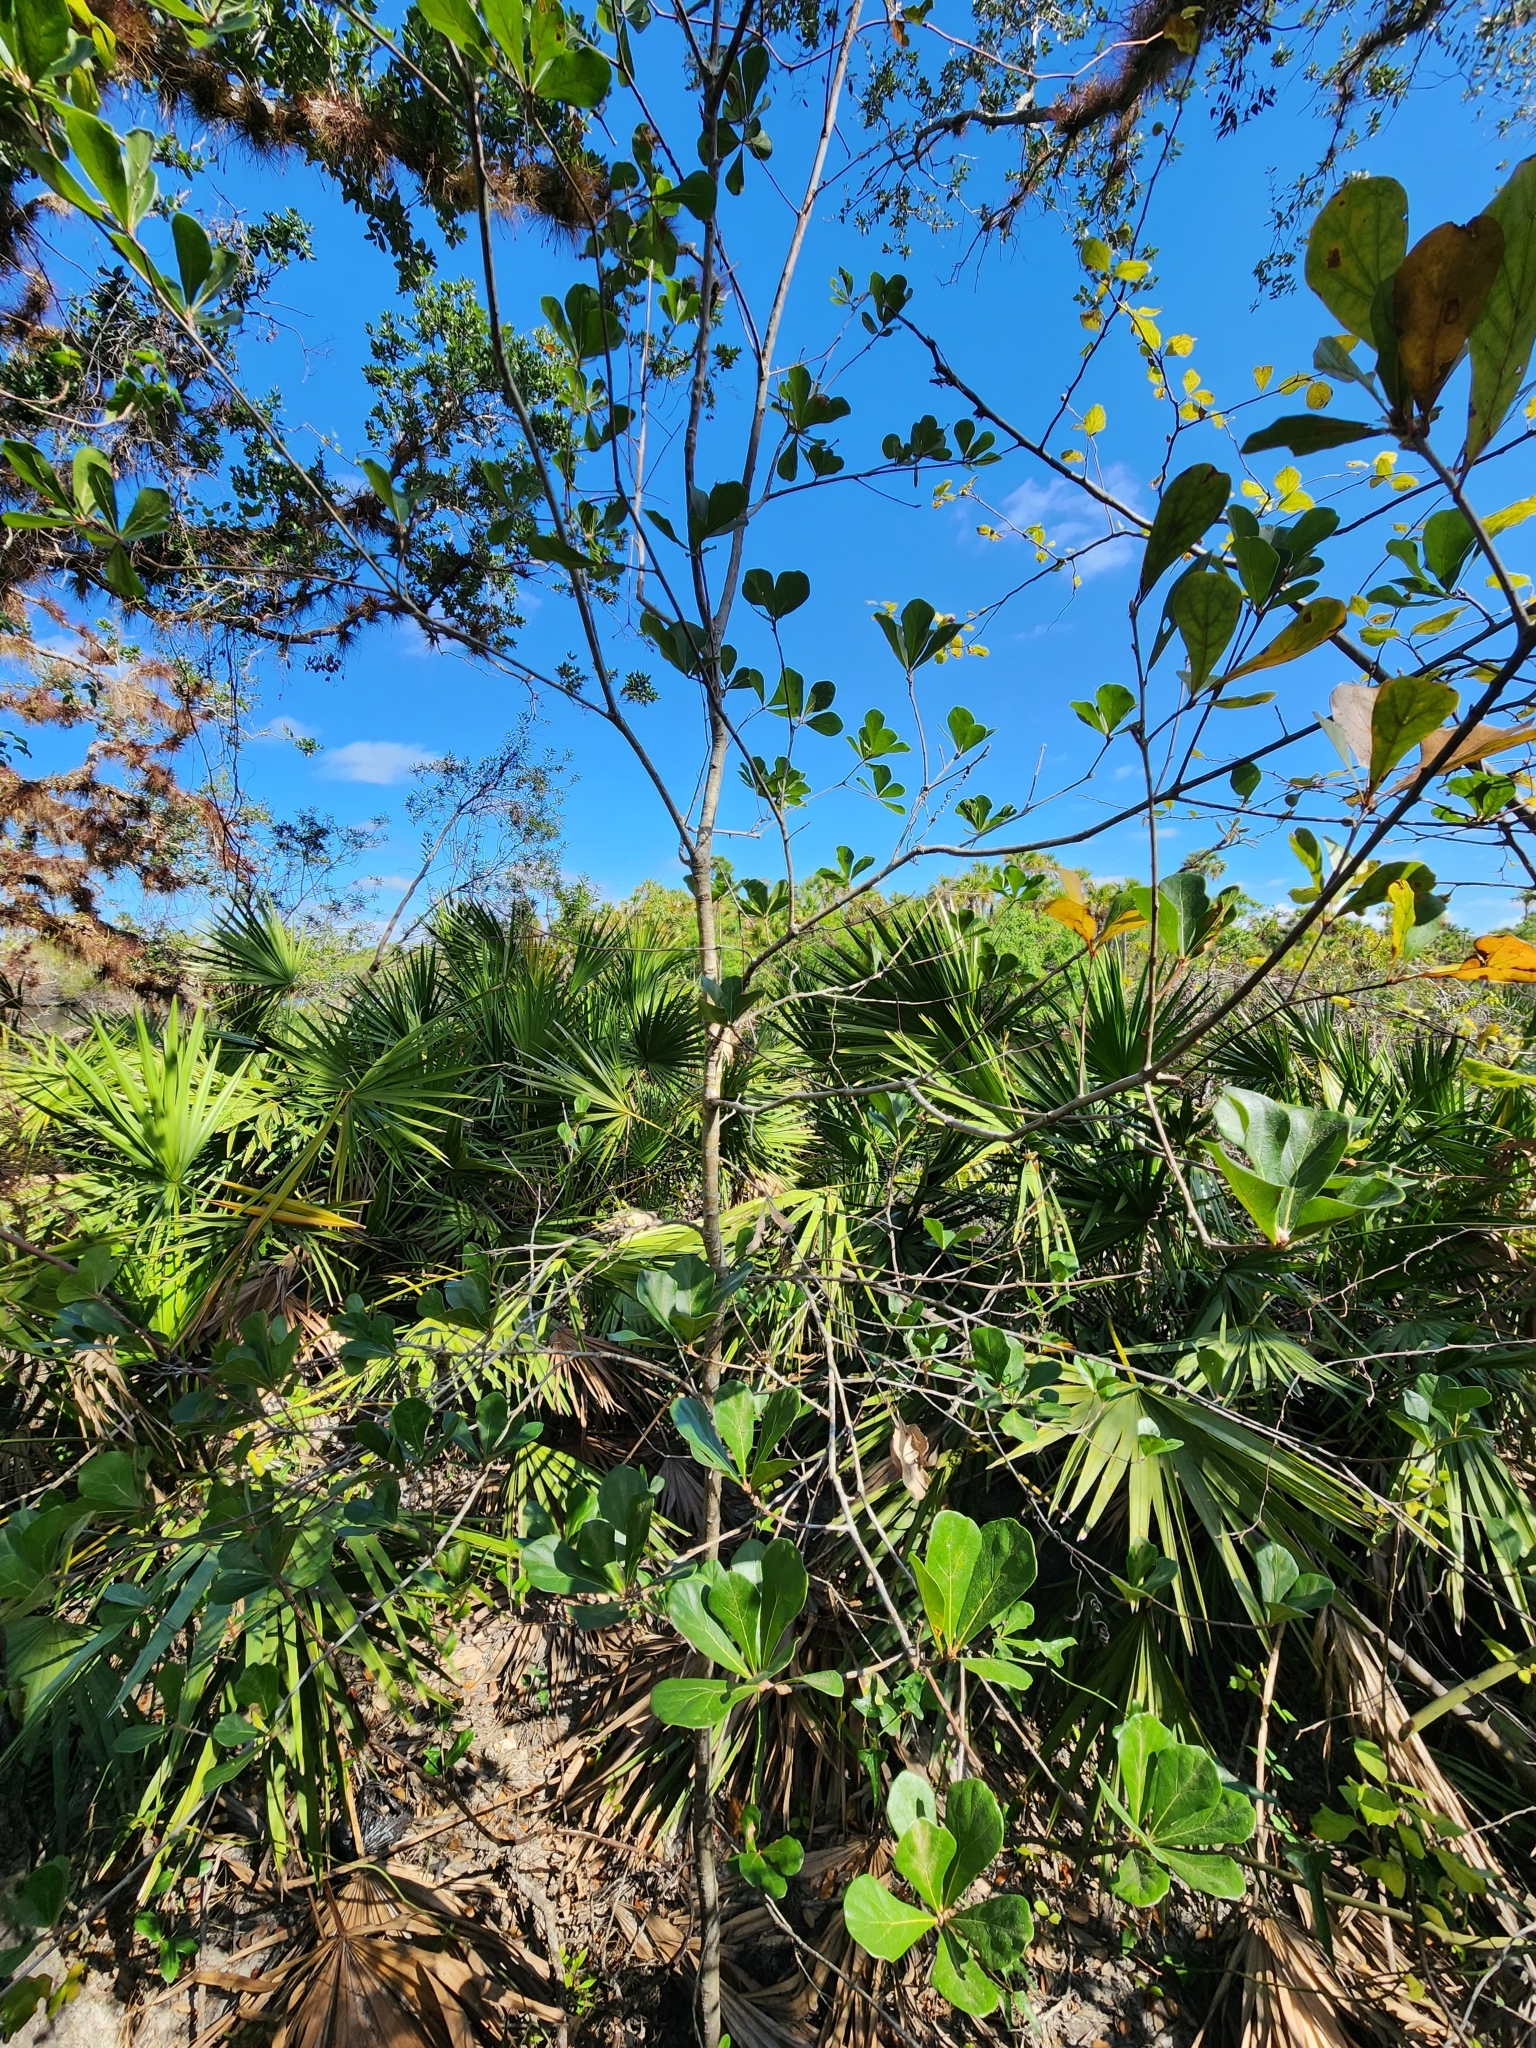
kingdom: Plantae
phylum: Tracheophyta
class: Magnoliopsida
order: Fagales
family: Fagaceae
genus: Quercus
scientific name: Quercus nigra
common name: Water oak
